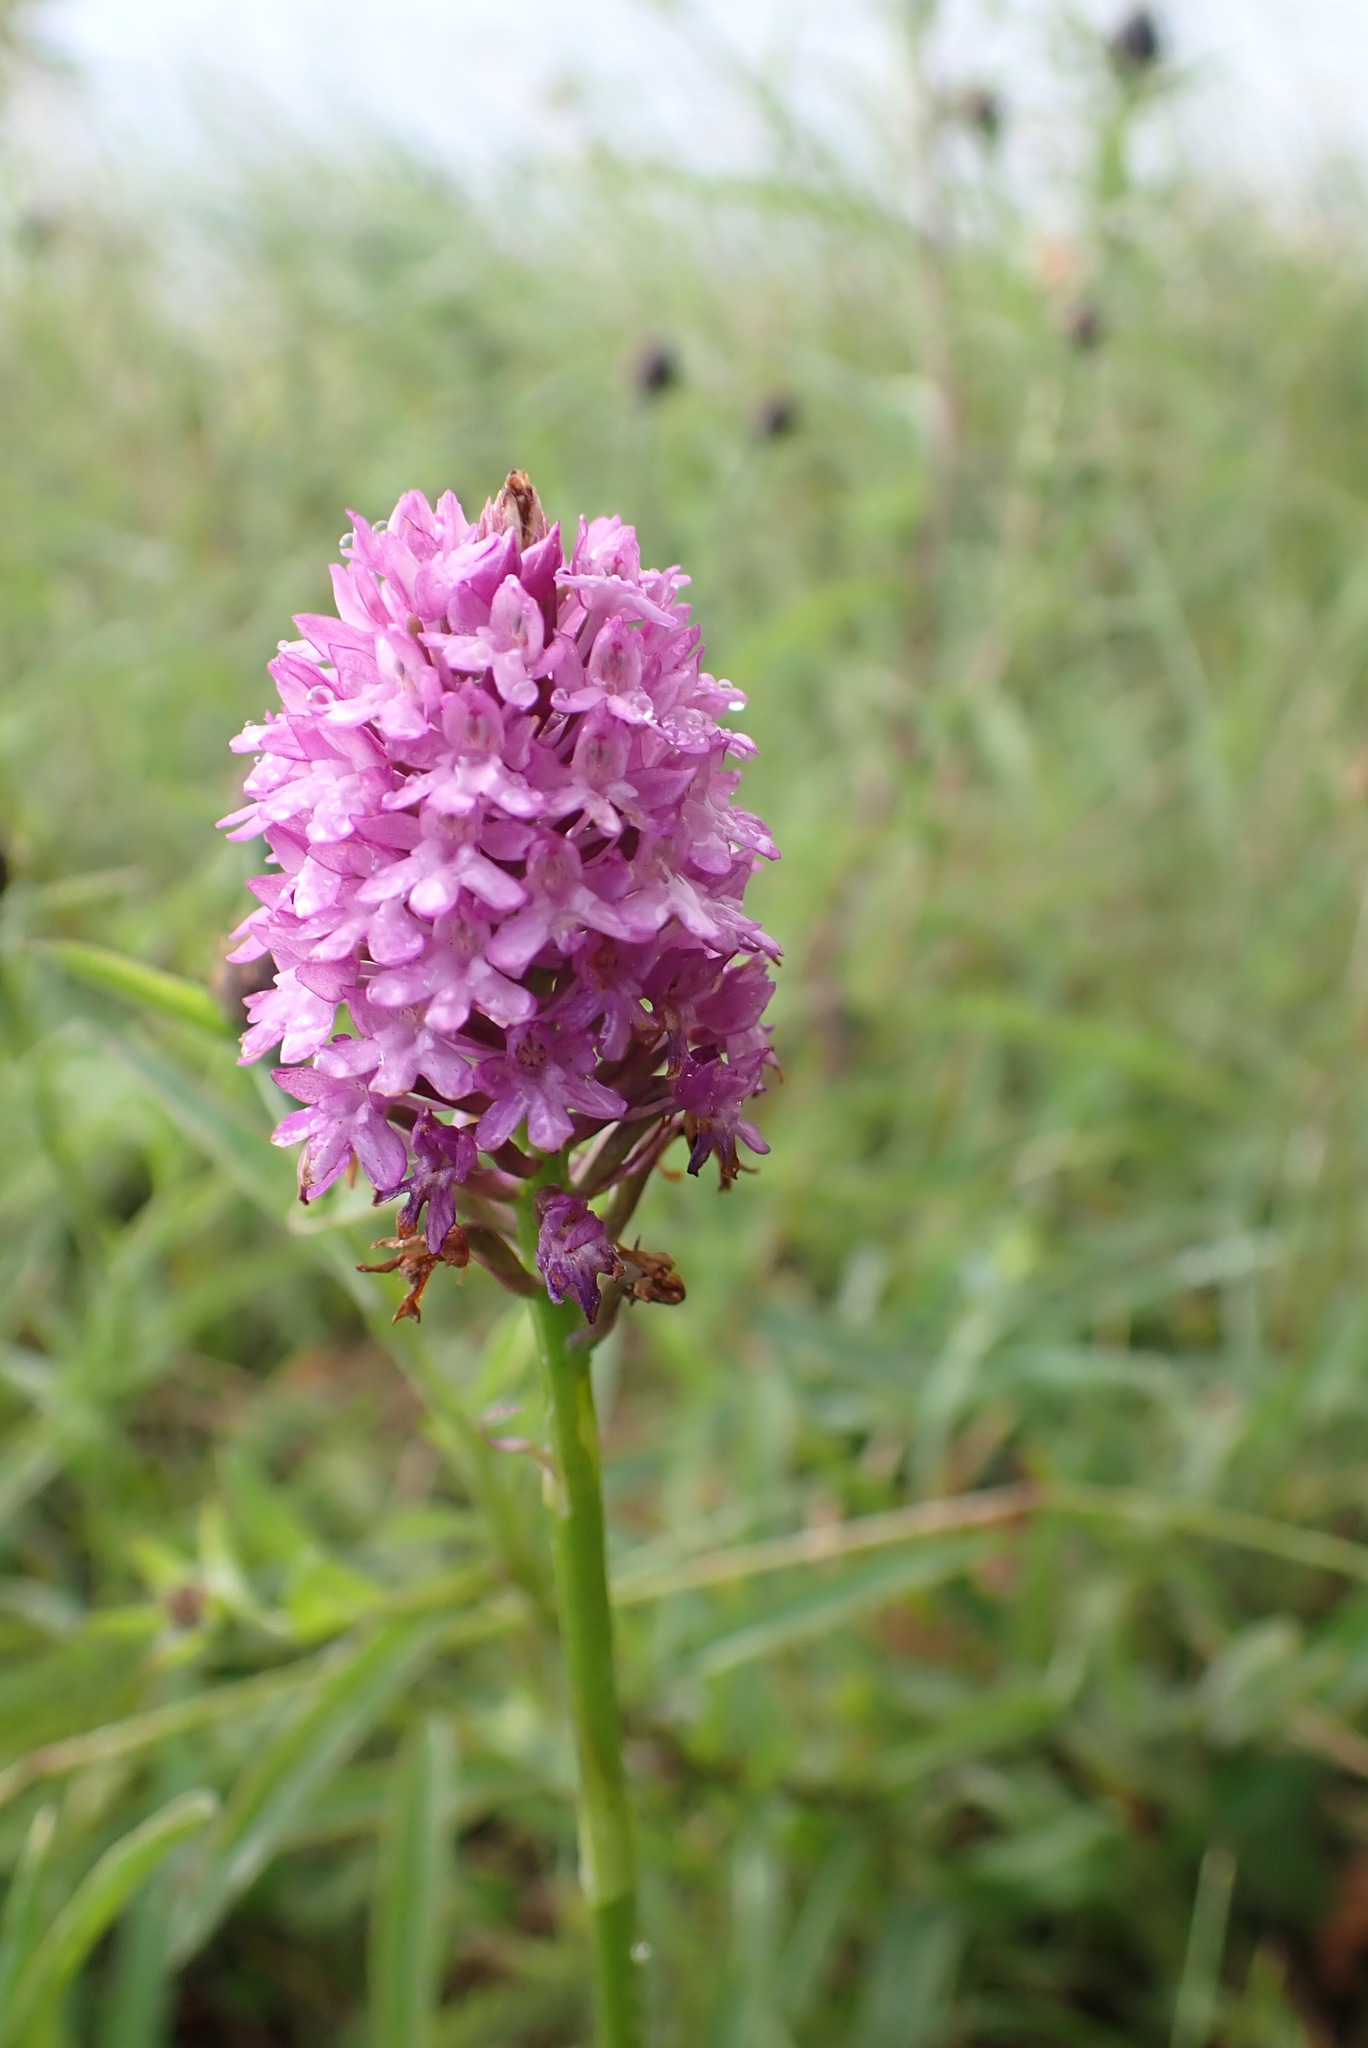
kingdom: Plantae
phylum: Tracheophyta
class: Liliopsida
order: Asparagales
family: Orchidaceae
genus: Anacamptis
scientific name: Anacamptis pyramidalis
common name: Pyramidal orchid
